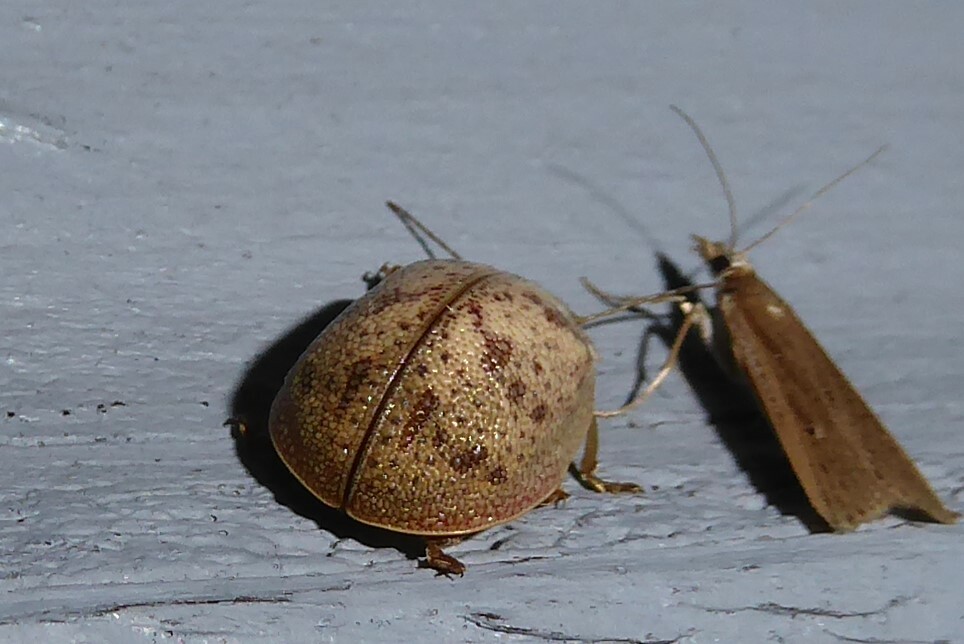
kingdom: Animalia
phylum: Arthropoda
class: Insecta
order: Coleoptera
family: Chrysomelidae
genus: Paropsis
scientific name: Paropsis charybdis
